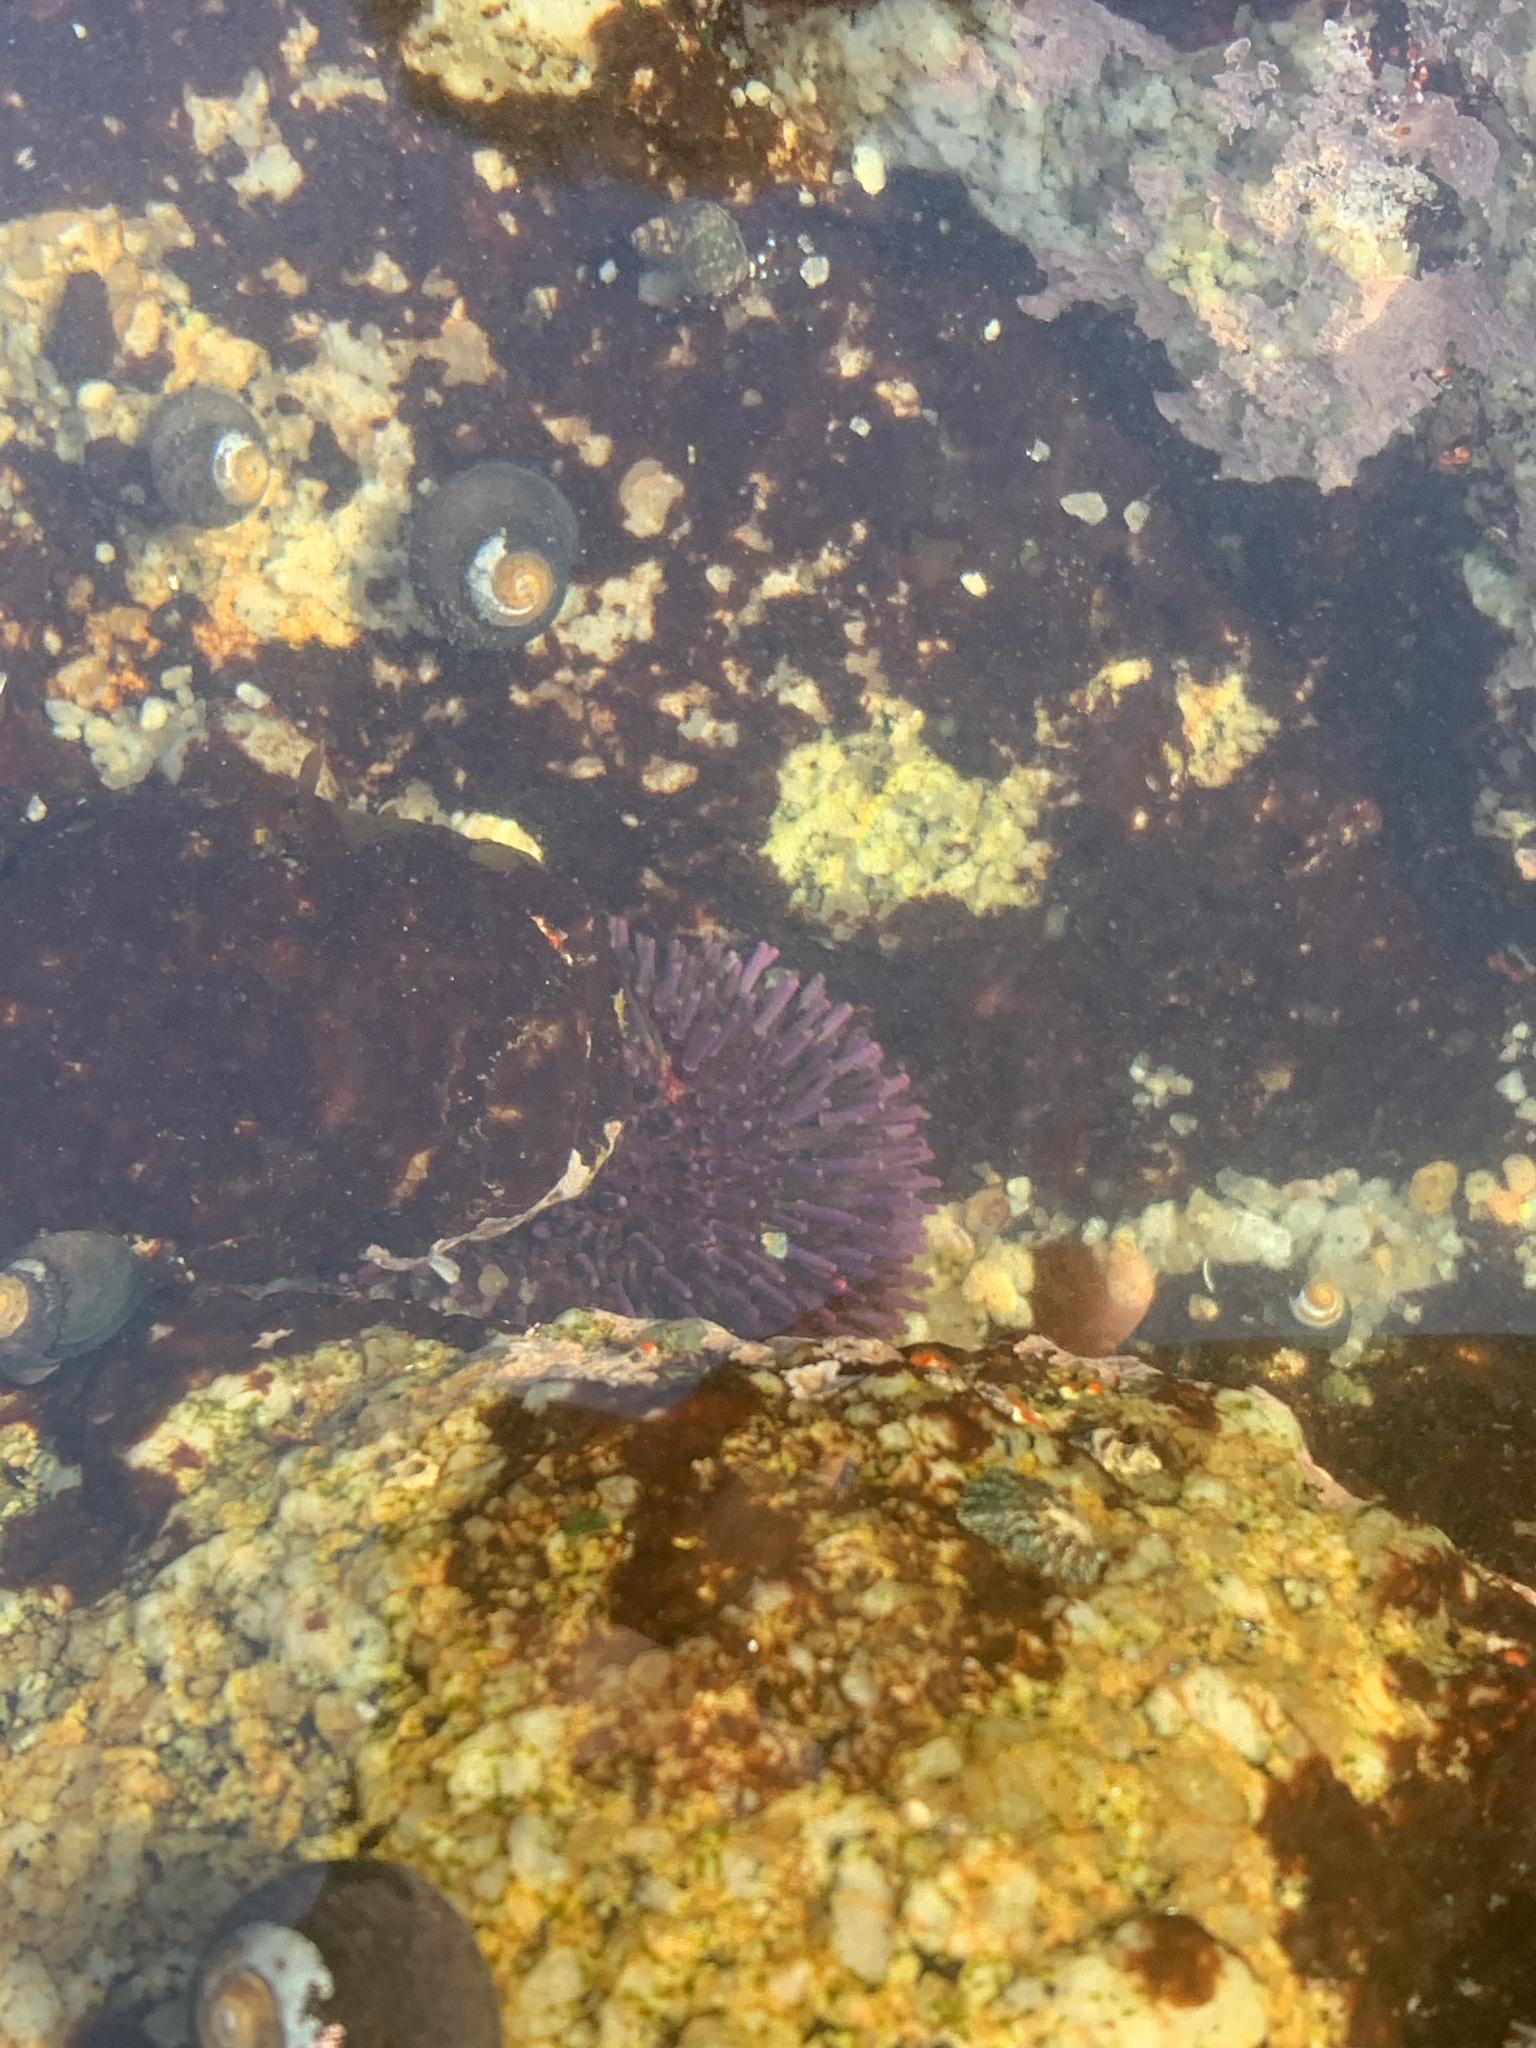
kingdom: Animalia
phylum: Echinodermata
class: Echinoidea
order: Camarodonta
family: Strongylocentrotidae
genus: Strongylocentrotus
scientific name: Strongylocentrotus purpuratus
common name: Purple sea urchin
